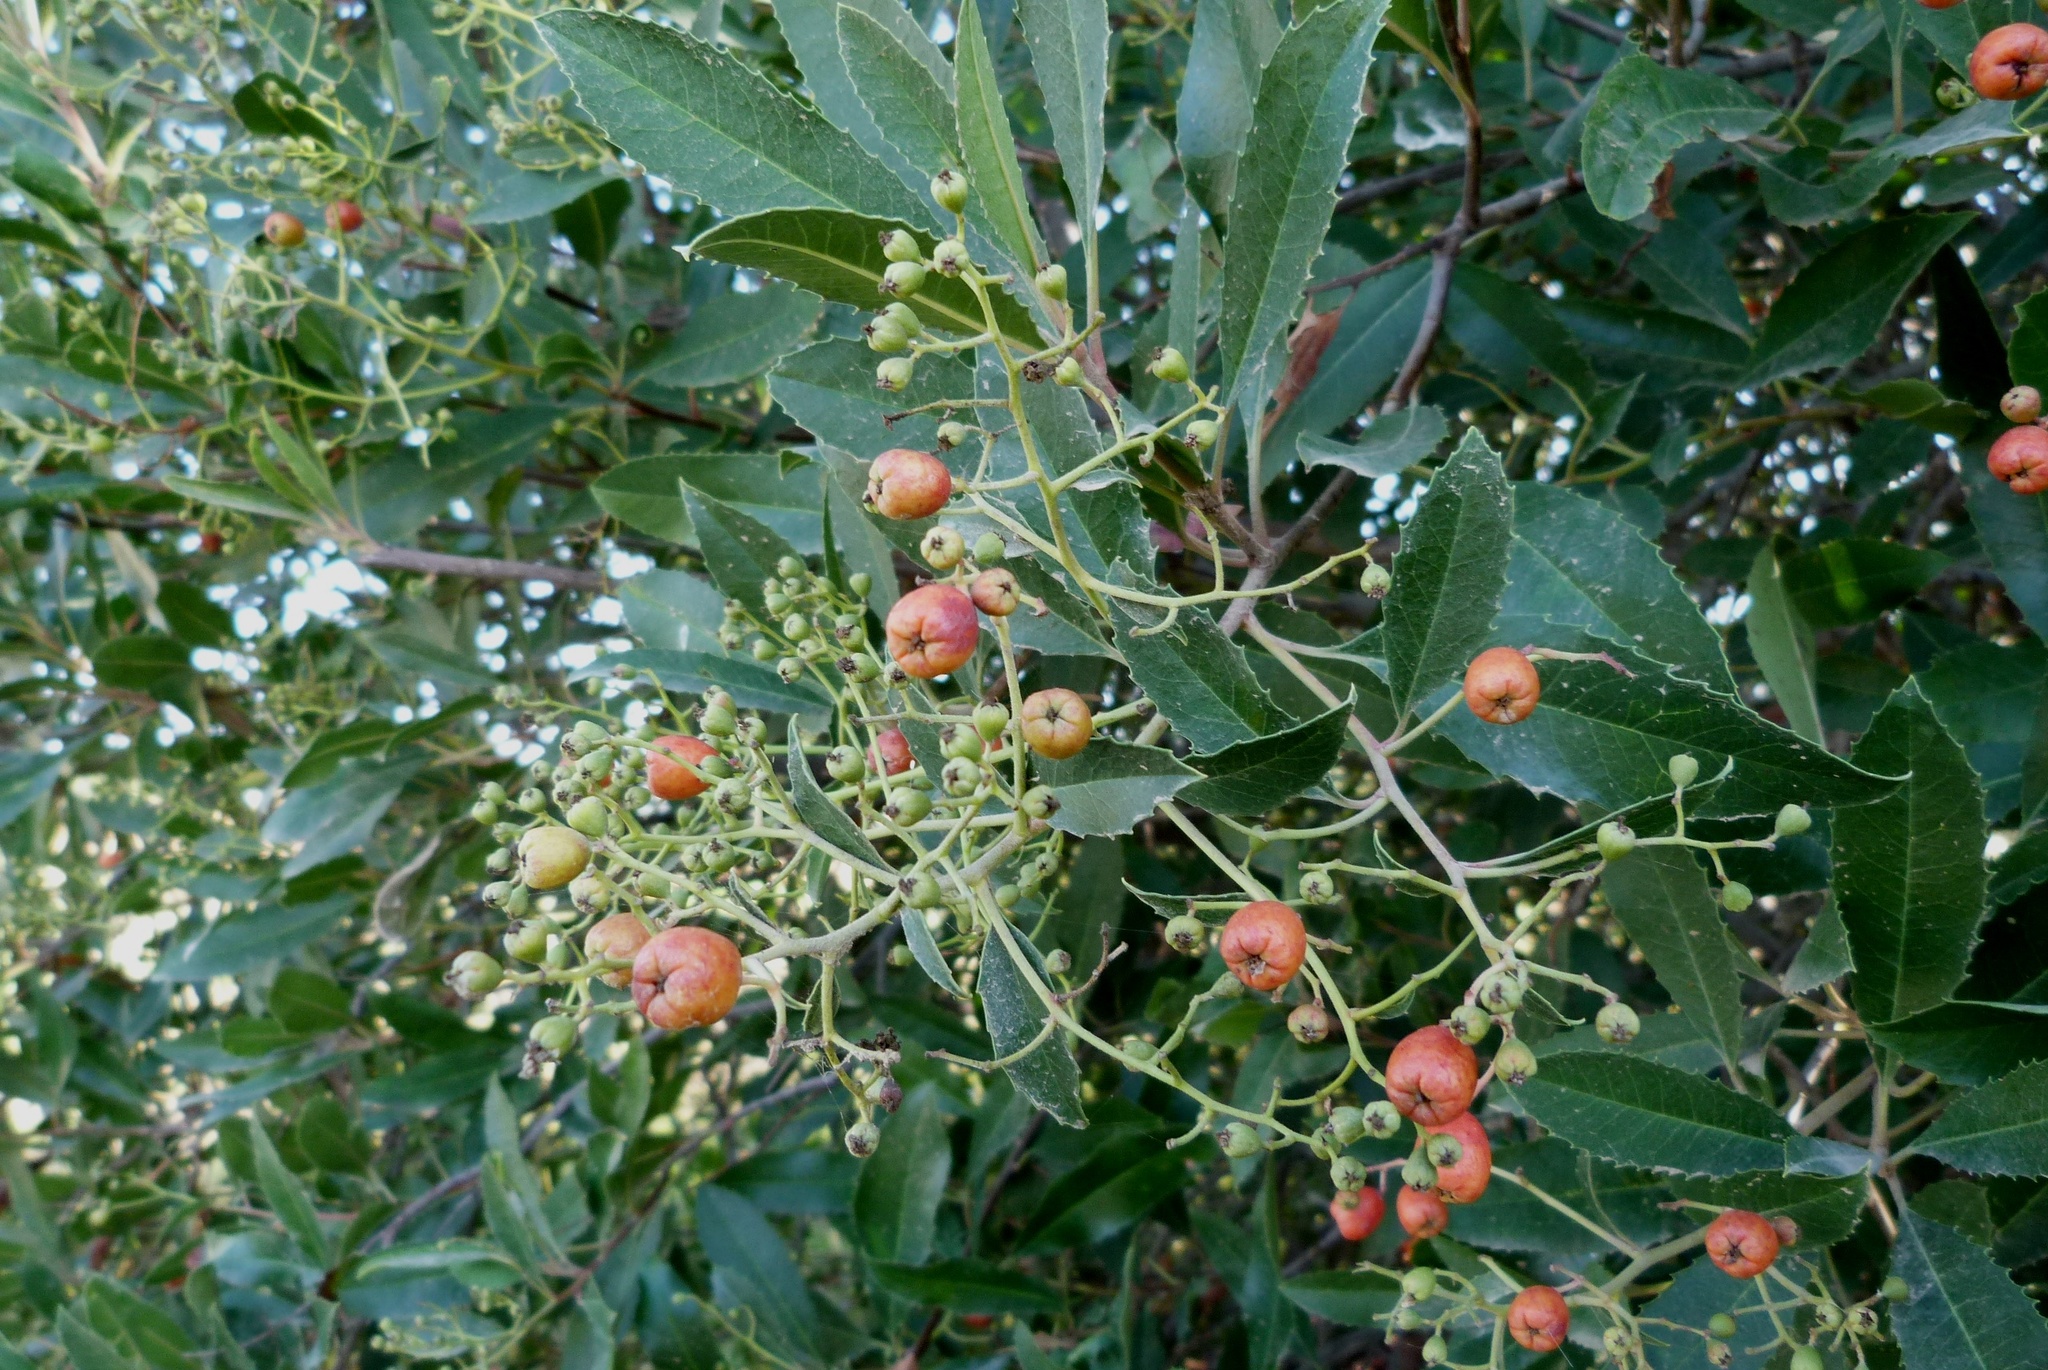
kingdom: Plantae
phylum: Tracheophyta
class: Magnoliopsida
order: Rosales
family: Rosaceae
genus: Heteromeles
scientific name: Heteromeles arbutifolia
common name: California-holly
